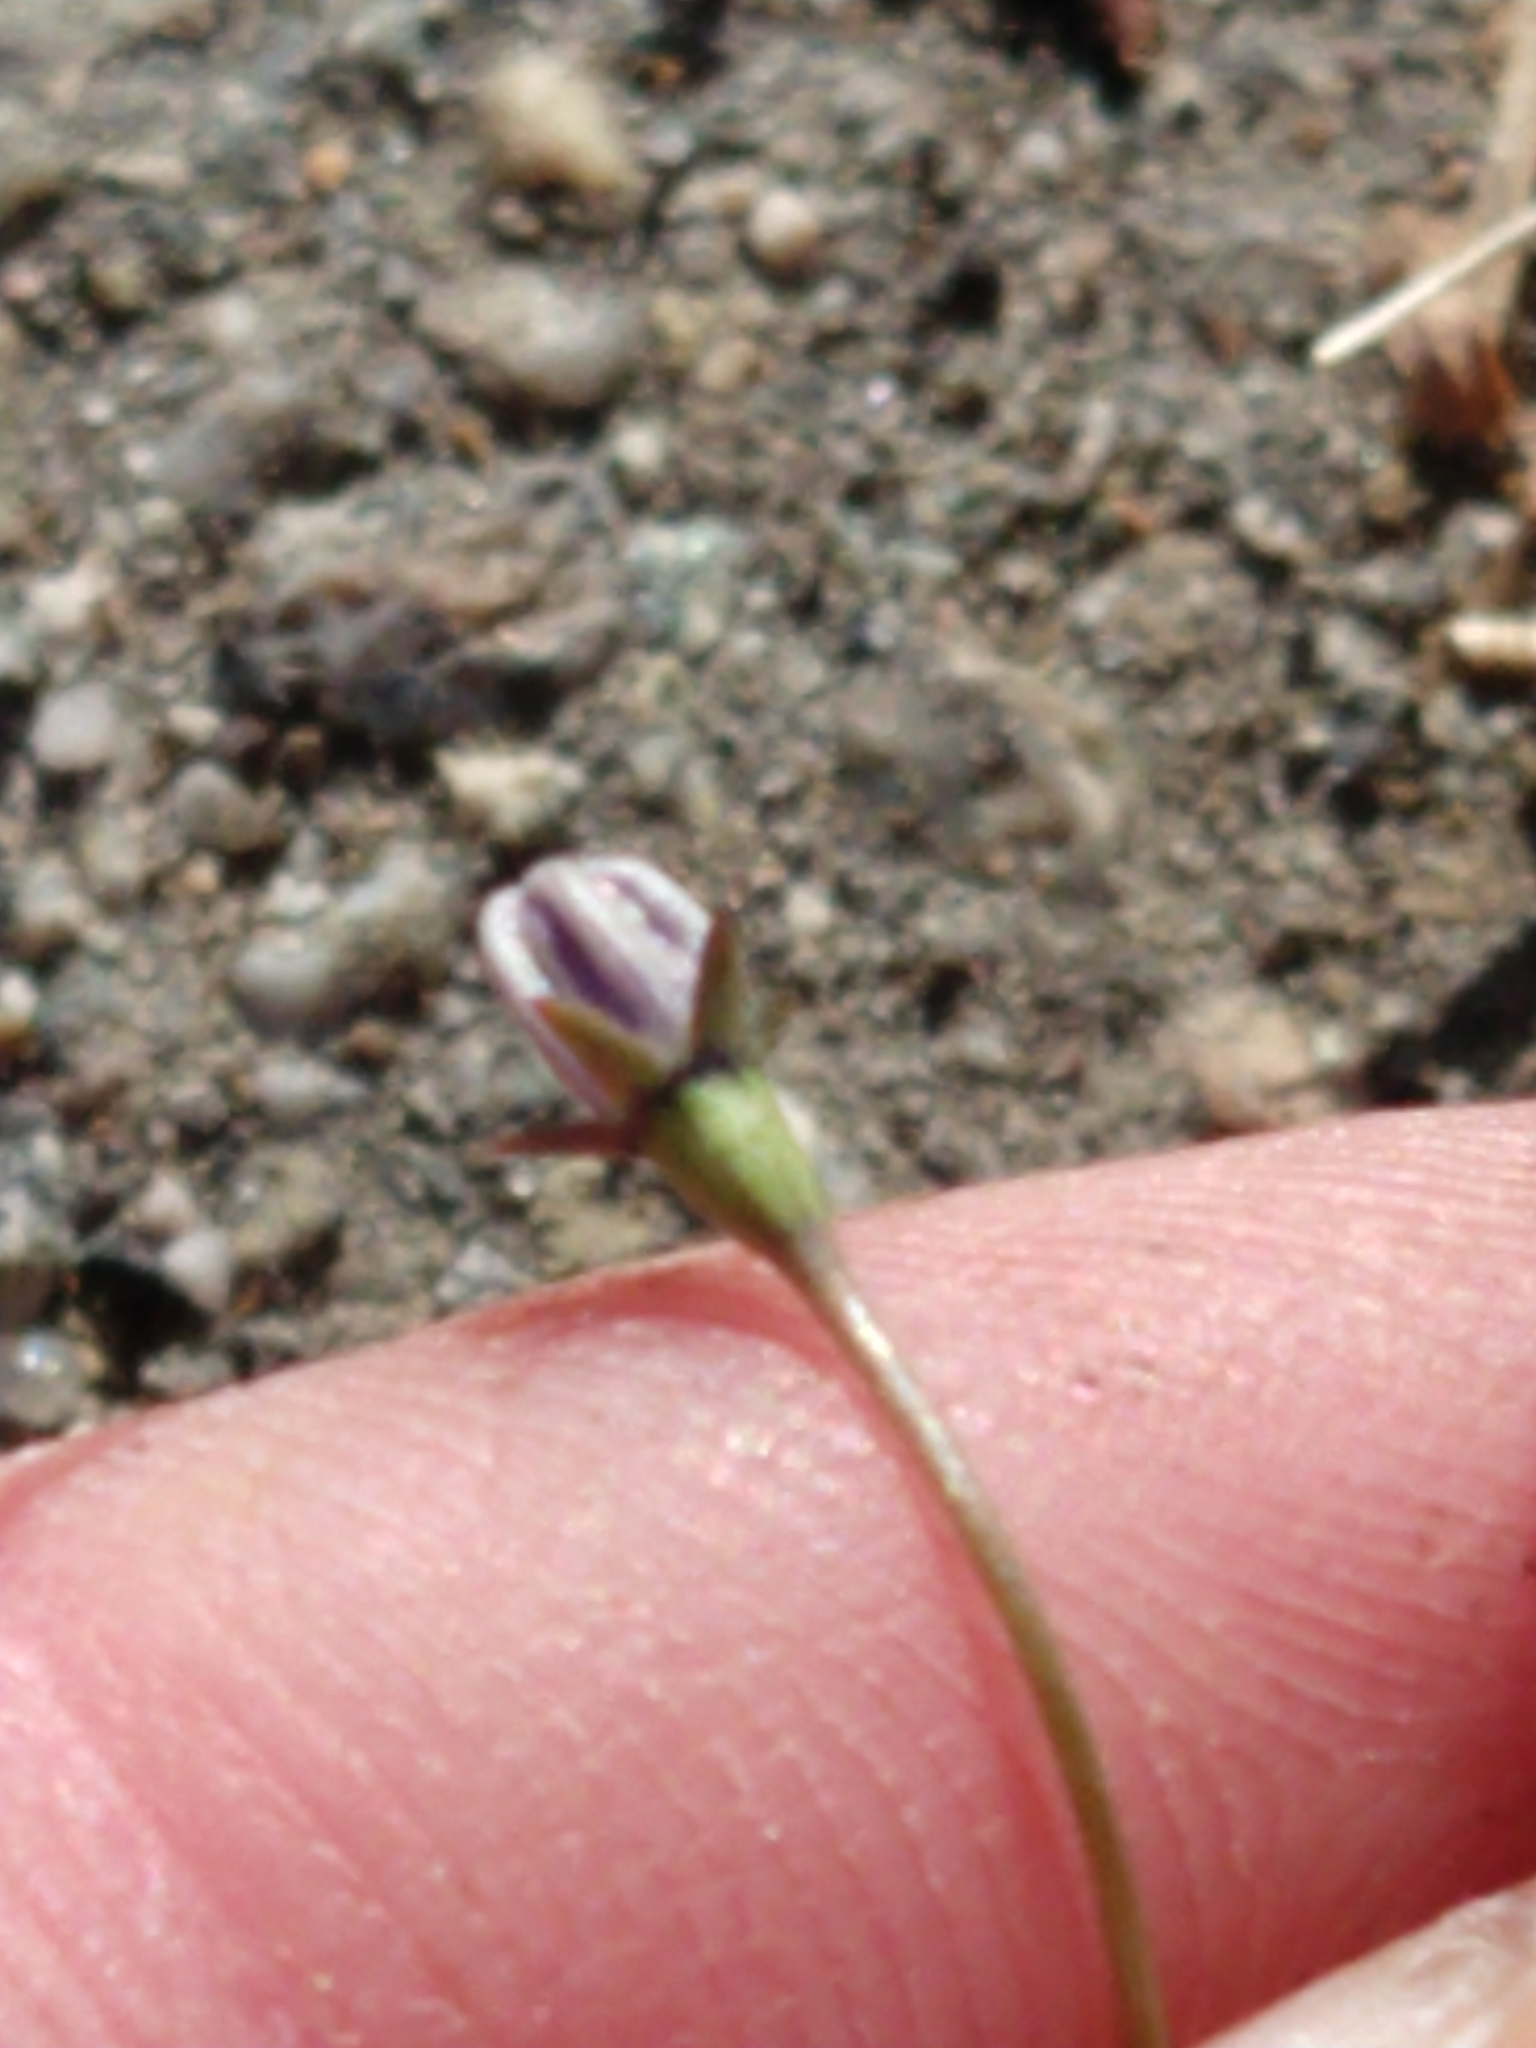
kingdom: Plantae
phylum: Tracheophyta
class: Magnoliopsida
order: Asterales
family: Campanulaceae
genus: Wahlenbergia
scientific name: Wahlenbergia marginata
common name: Southern rockbell
